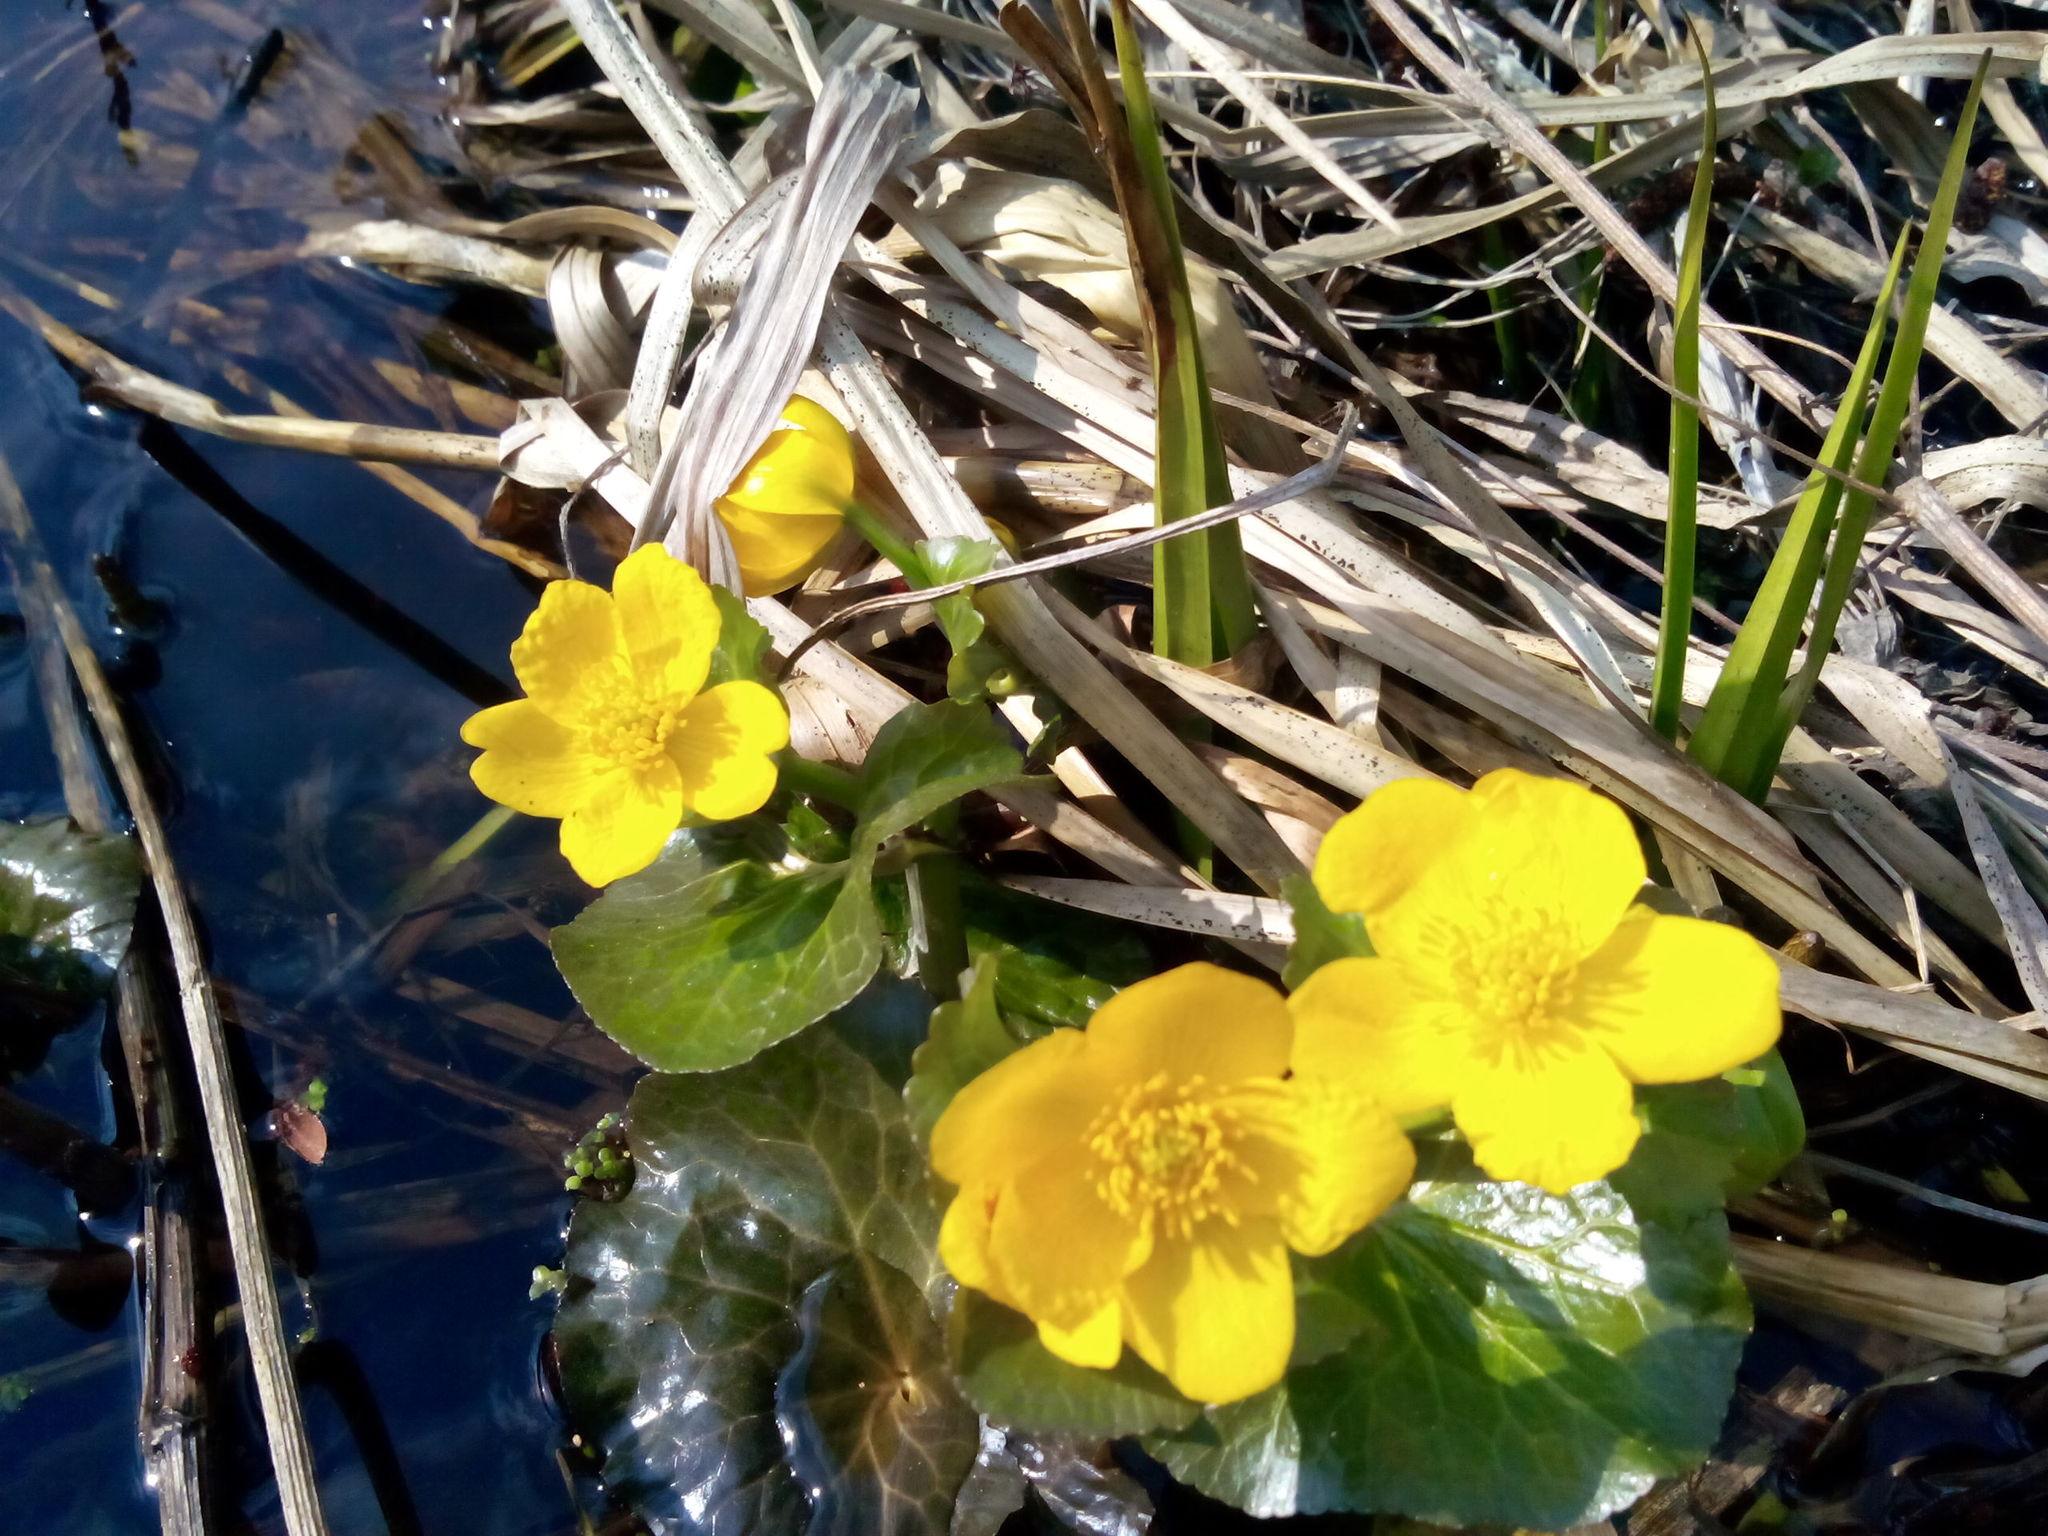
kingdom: Plantae
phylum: Tracheophyta
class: Magnoliopsida
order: Ranunculales
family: Ranunculaceae
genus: Caltha
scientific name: Caltha palustris
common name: Marsh marigold
